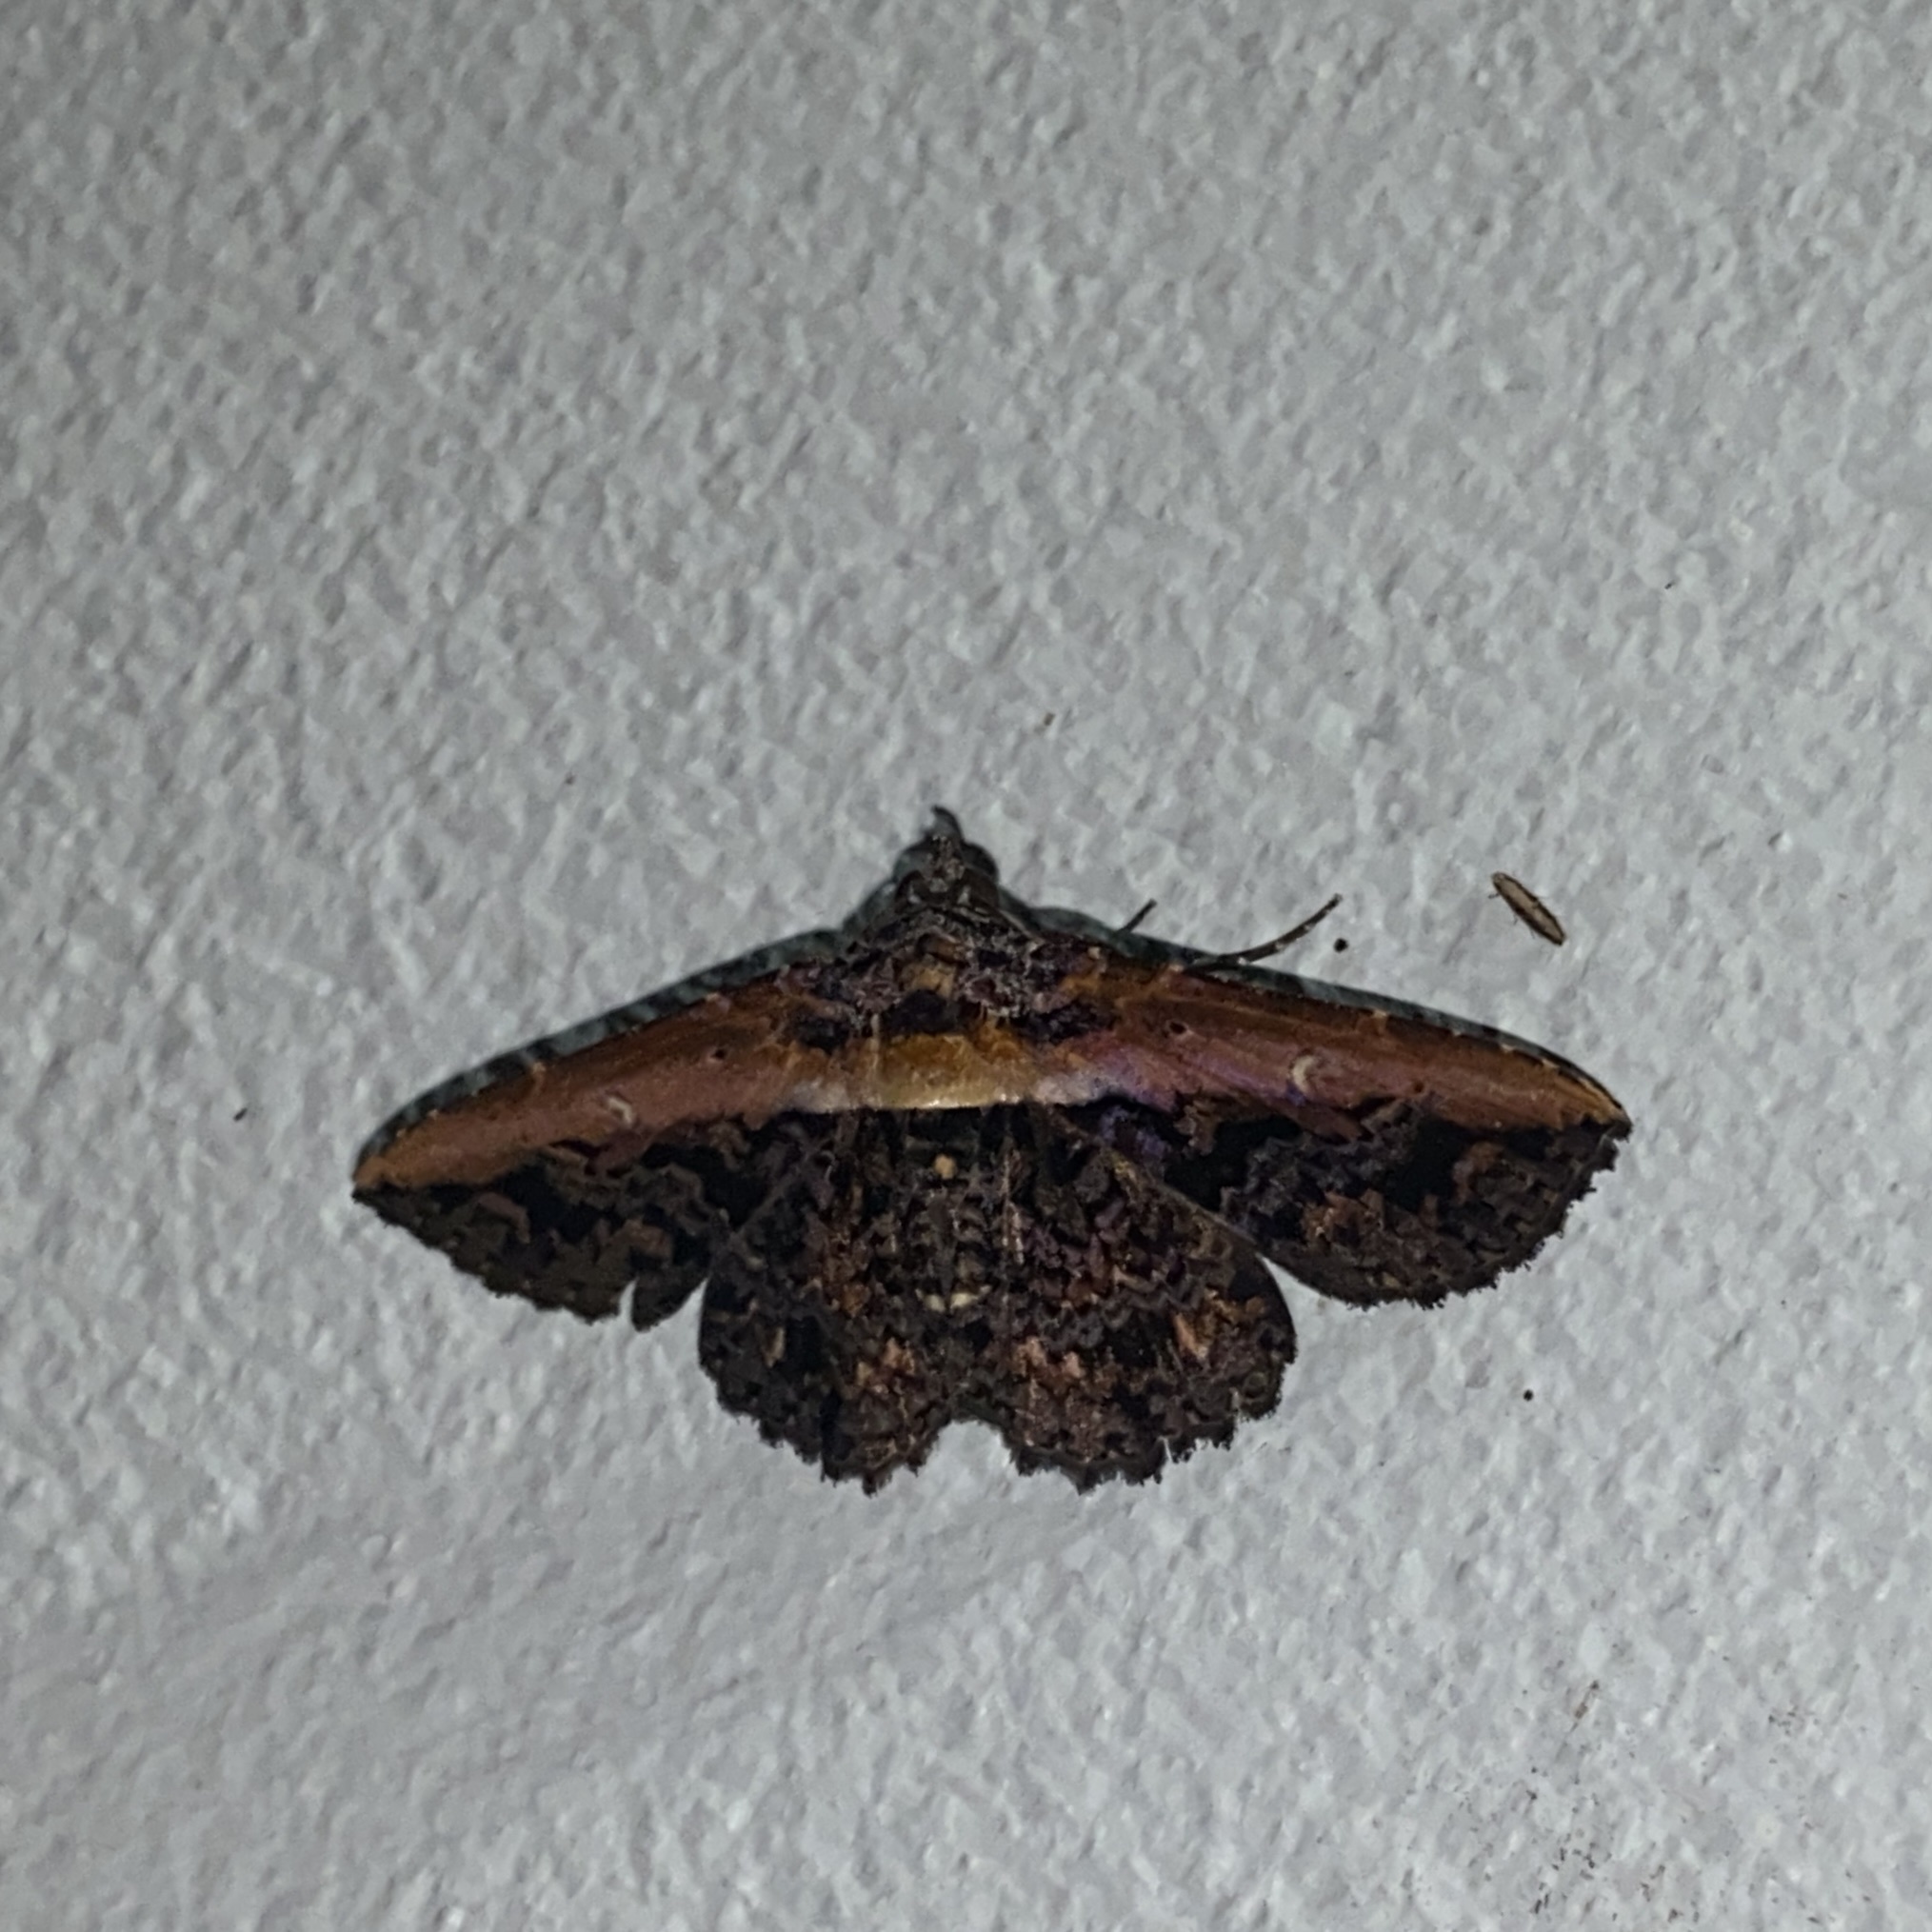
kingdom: Animalia
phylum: Arthropoda
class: Insecta
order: Lepidoptera
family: Erebidae
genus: Selenisa
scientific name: Selenisa lanipes
